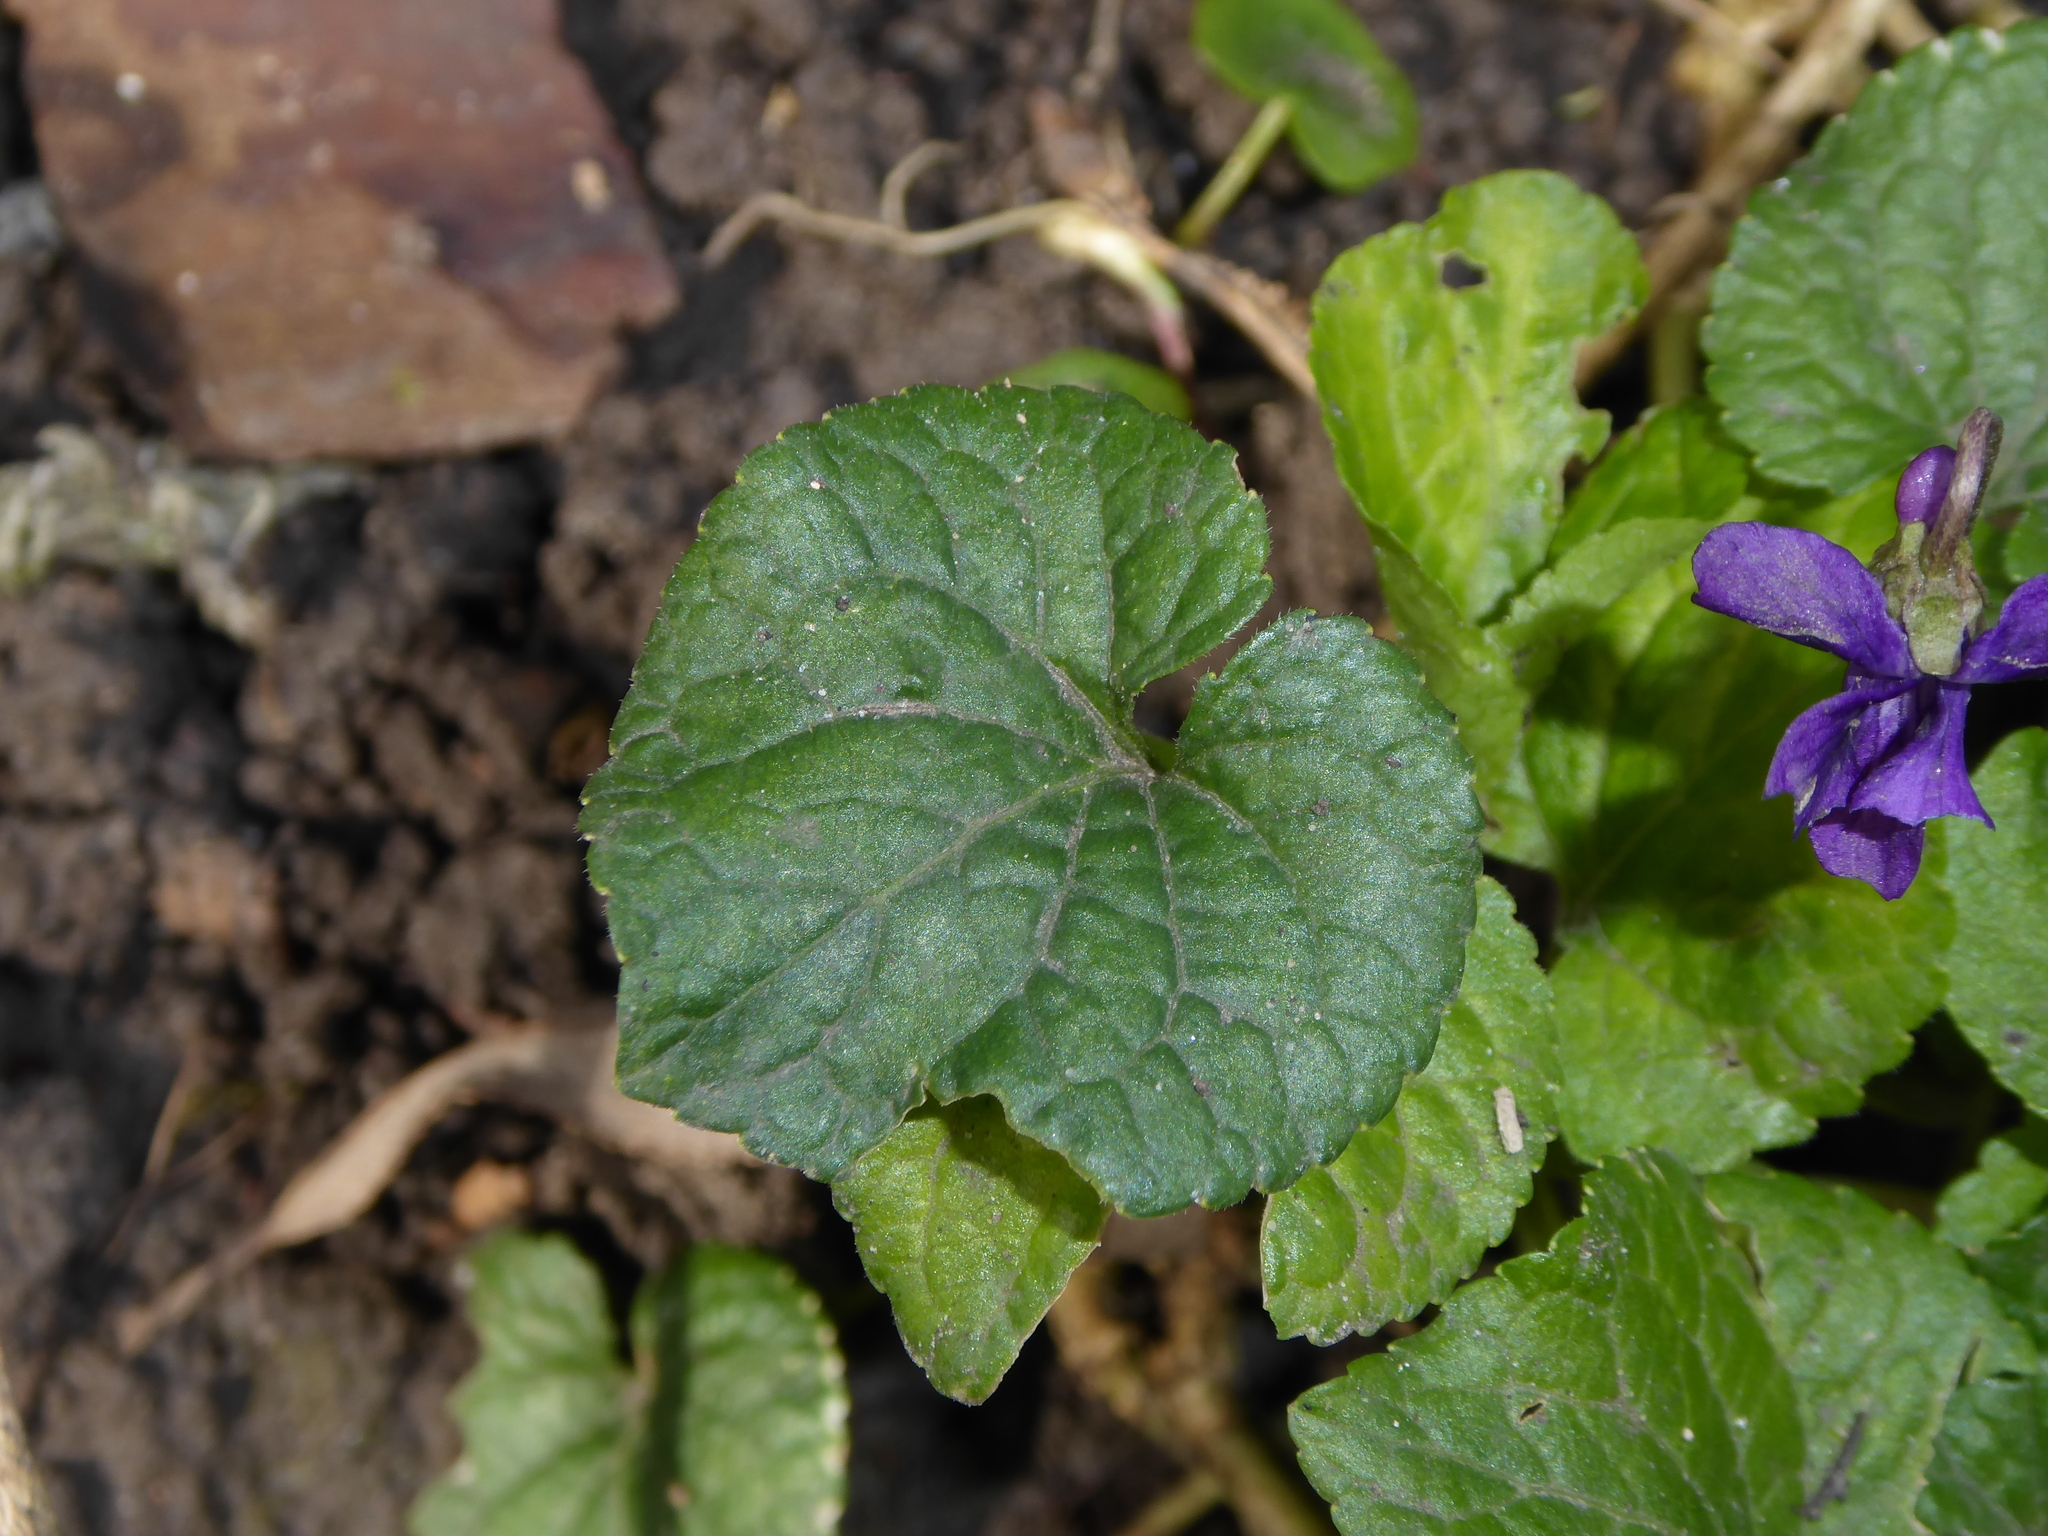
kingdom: Plantae
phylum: Tracheophyta
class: Magnoliopsida
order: Malpighiales
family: Violaceae
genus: Viola
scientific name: Viola odorata
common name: Sweet violet
